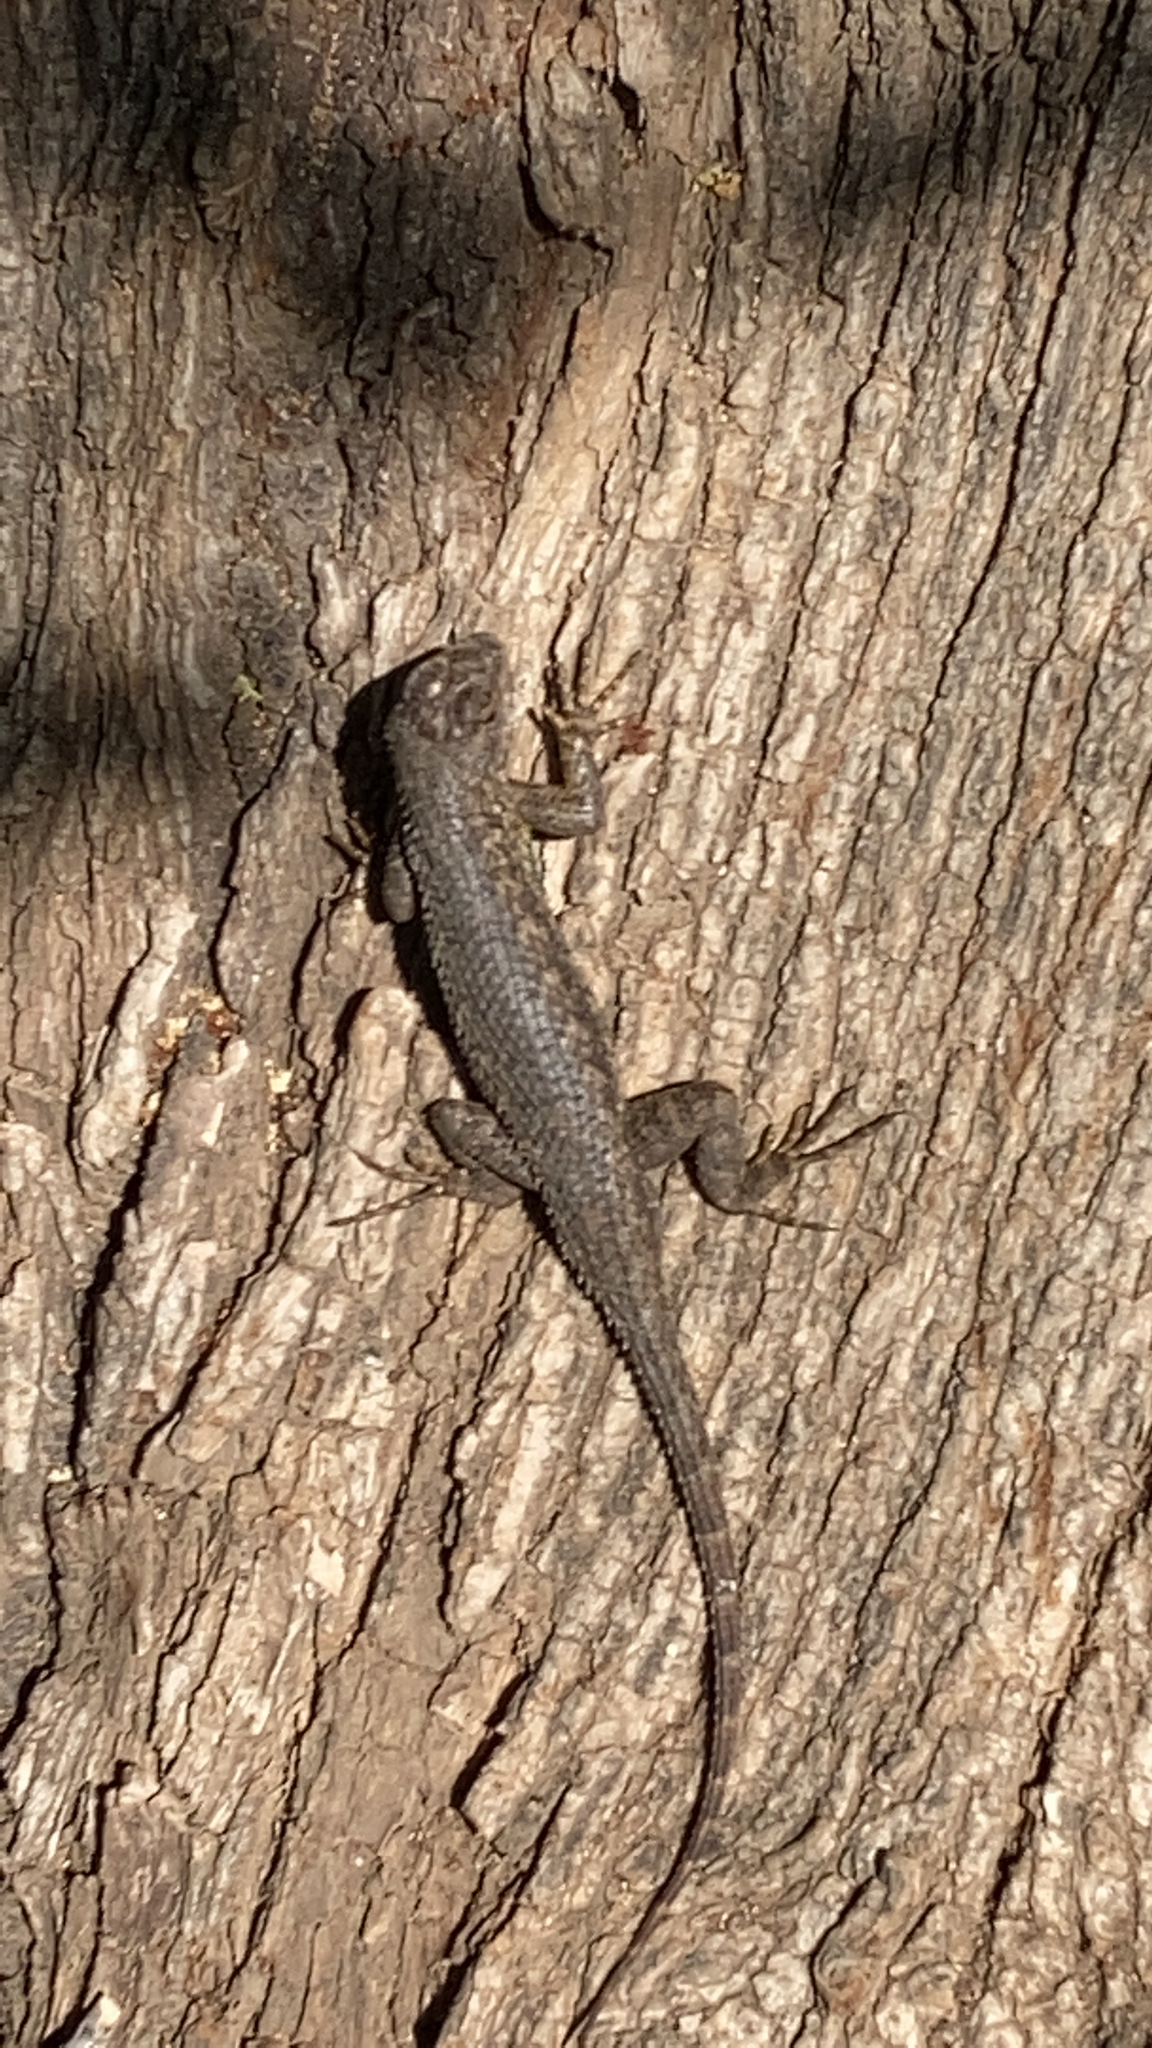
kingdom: Animalia
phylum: Chordata
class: Squamata
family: Phrynosomatidae
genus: Sceloporus
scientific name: Sceloporus occidentalis
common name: Western fence lizard
